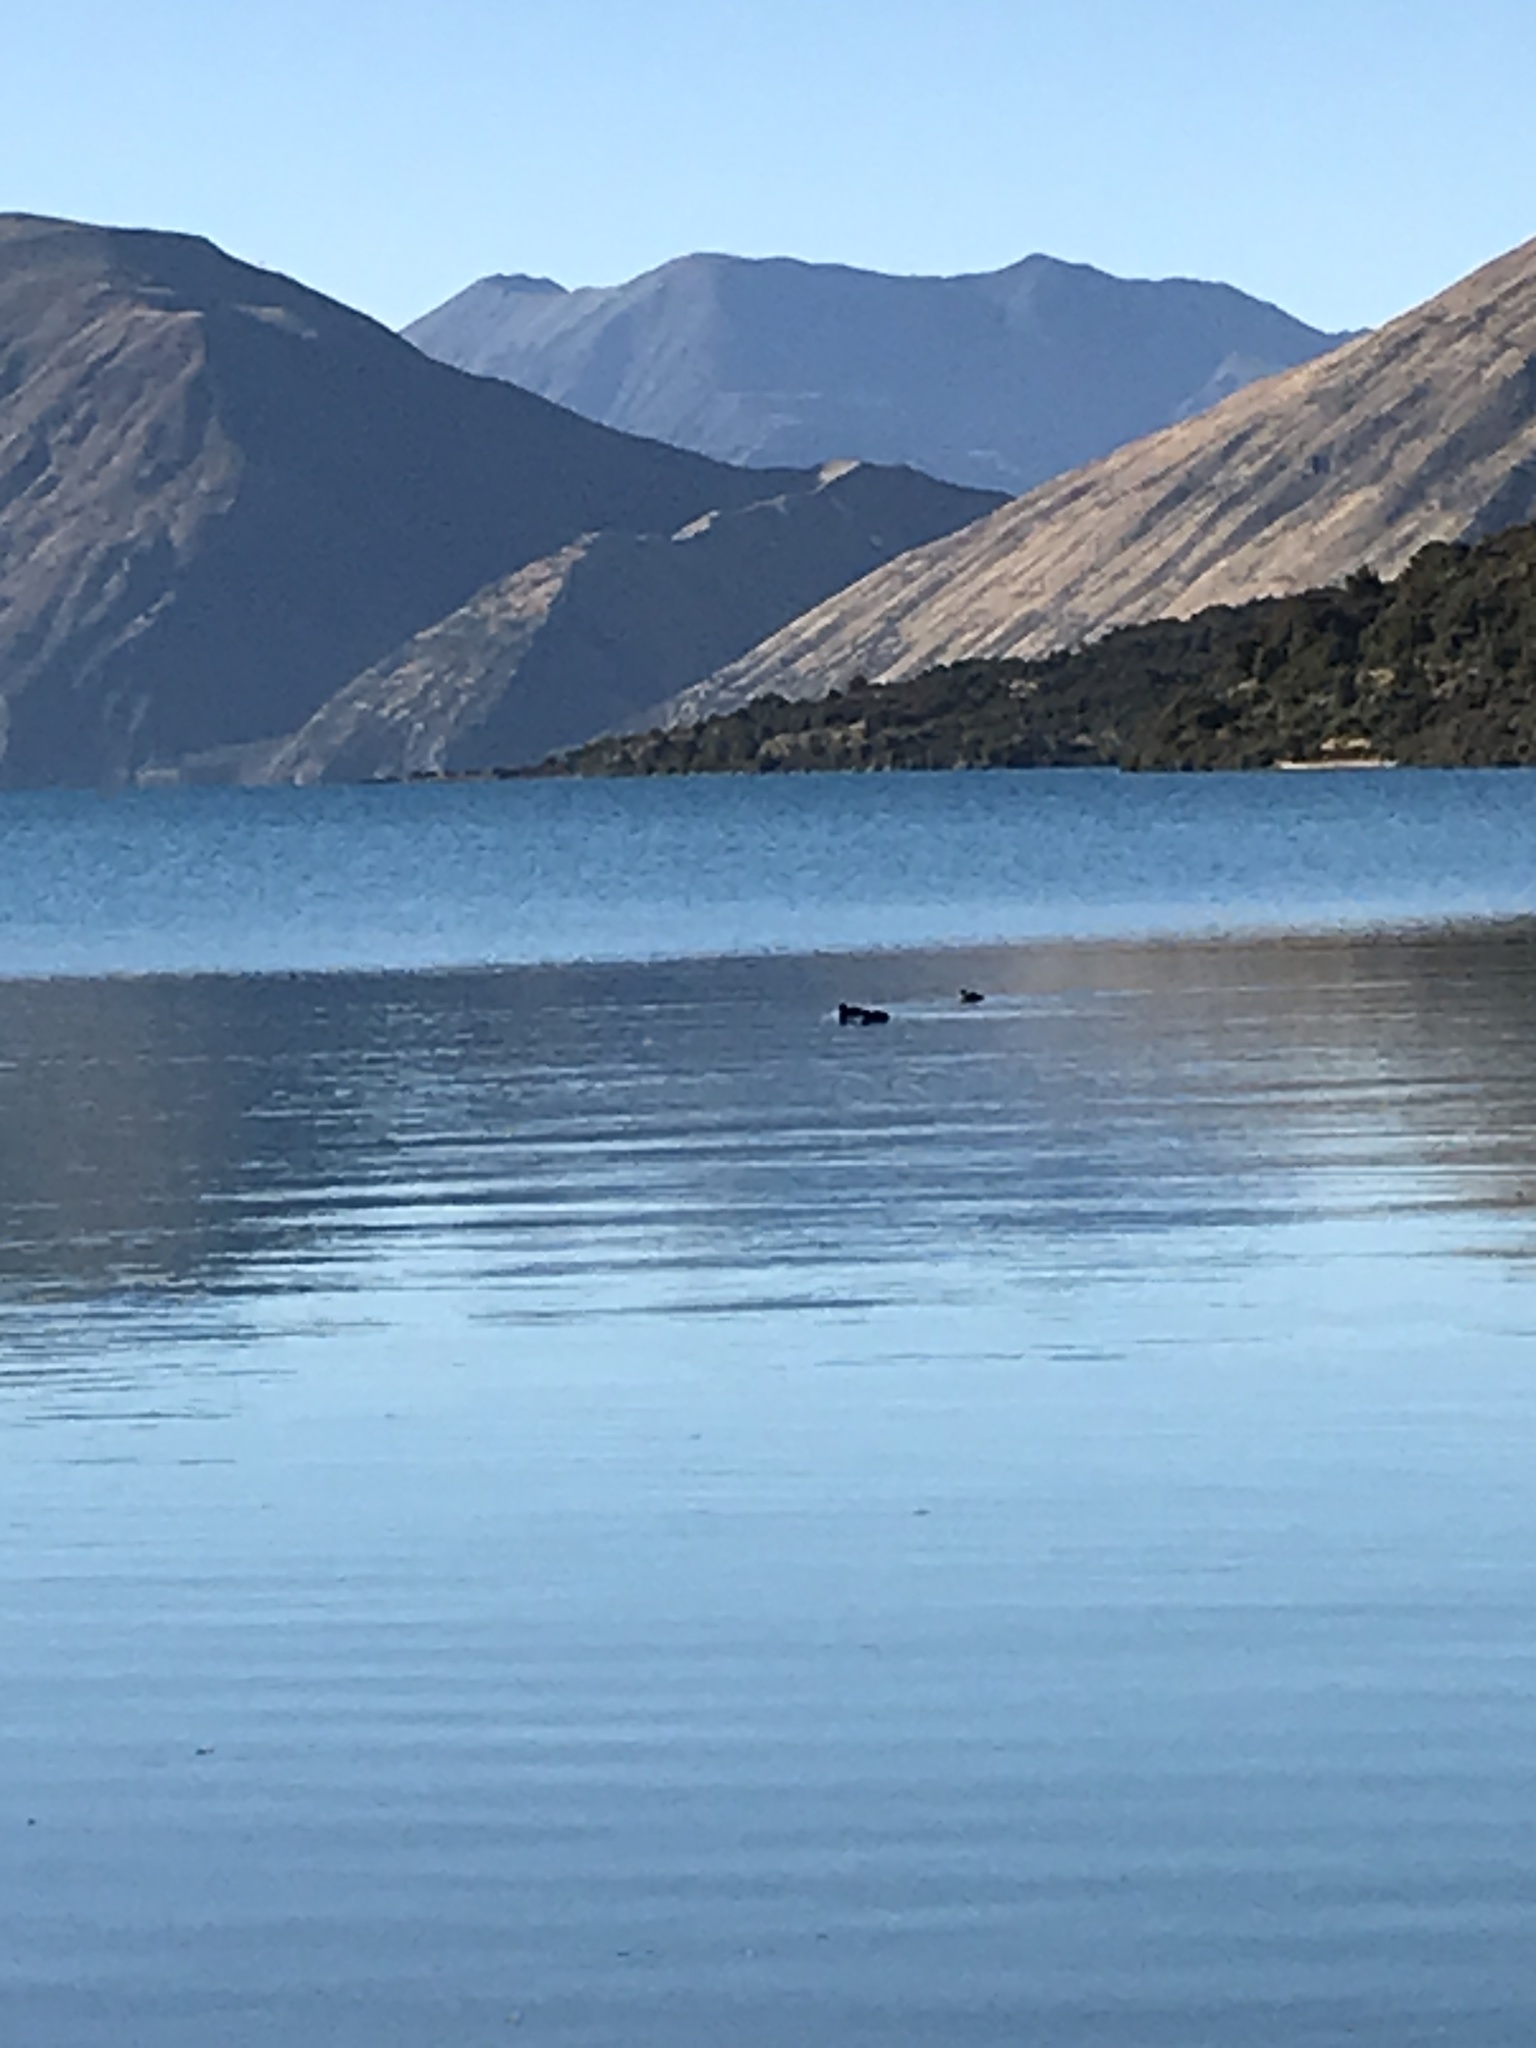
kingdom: Animalia
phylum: Chordata
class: Aves
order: Anseriformes
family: Anatidae
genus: Aythya
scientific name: Aythya novaeseelandiae
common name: New zealand scaup
